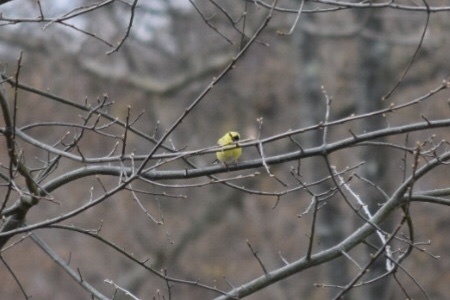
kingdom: Animalia
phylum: Chordata
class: Aves
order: Passeriformes
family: Fringillidae
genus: Spinus
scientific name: Spinus tristis
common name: American goldfinch
